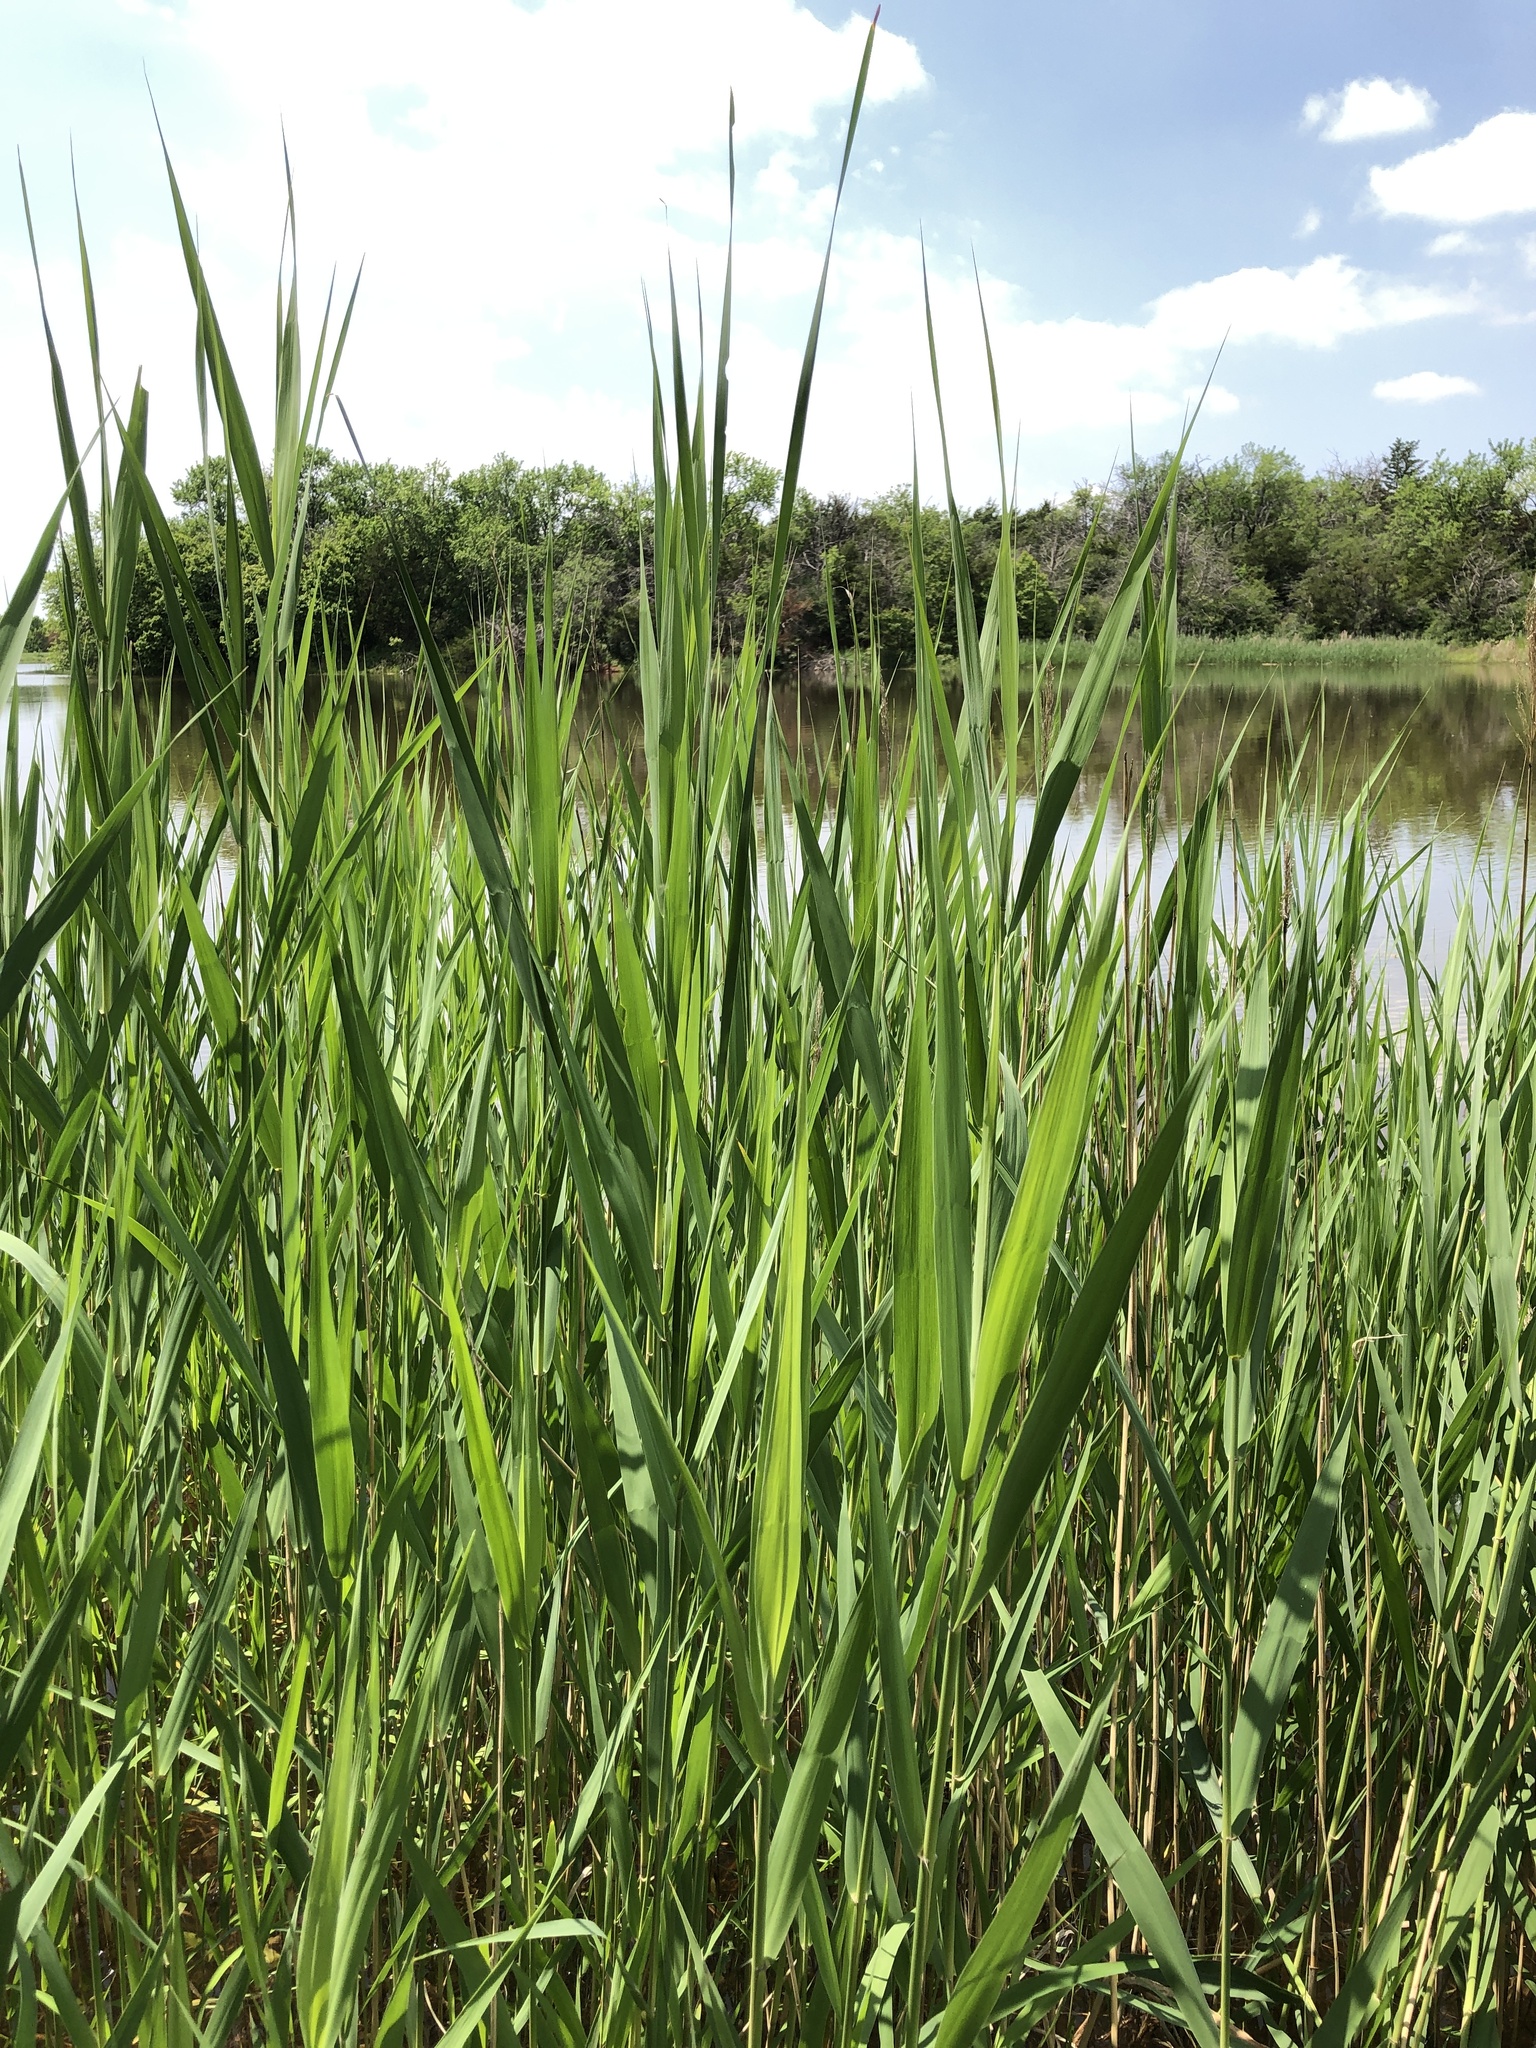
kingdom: Plantae
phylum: Tracheophyta
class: Liliopsida
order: Poales
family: Poaceae
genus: Phragmites
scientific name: Phragmites australis
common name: Common reed
